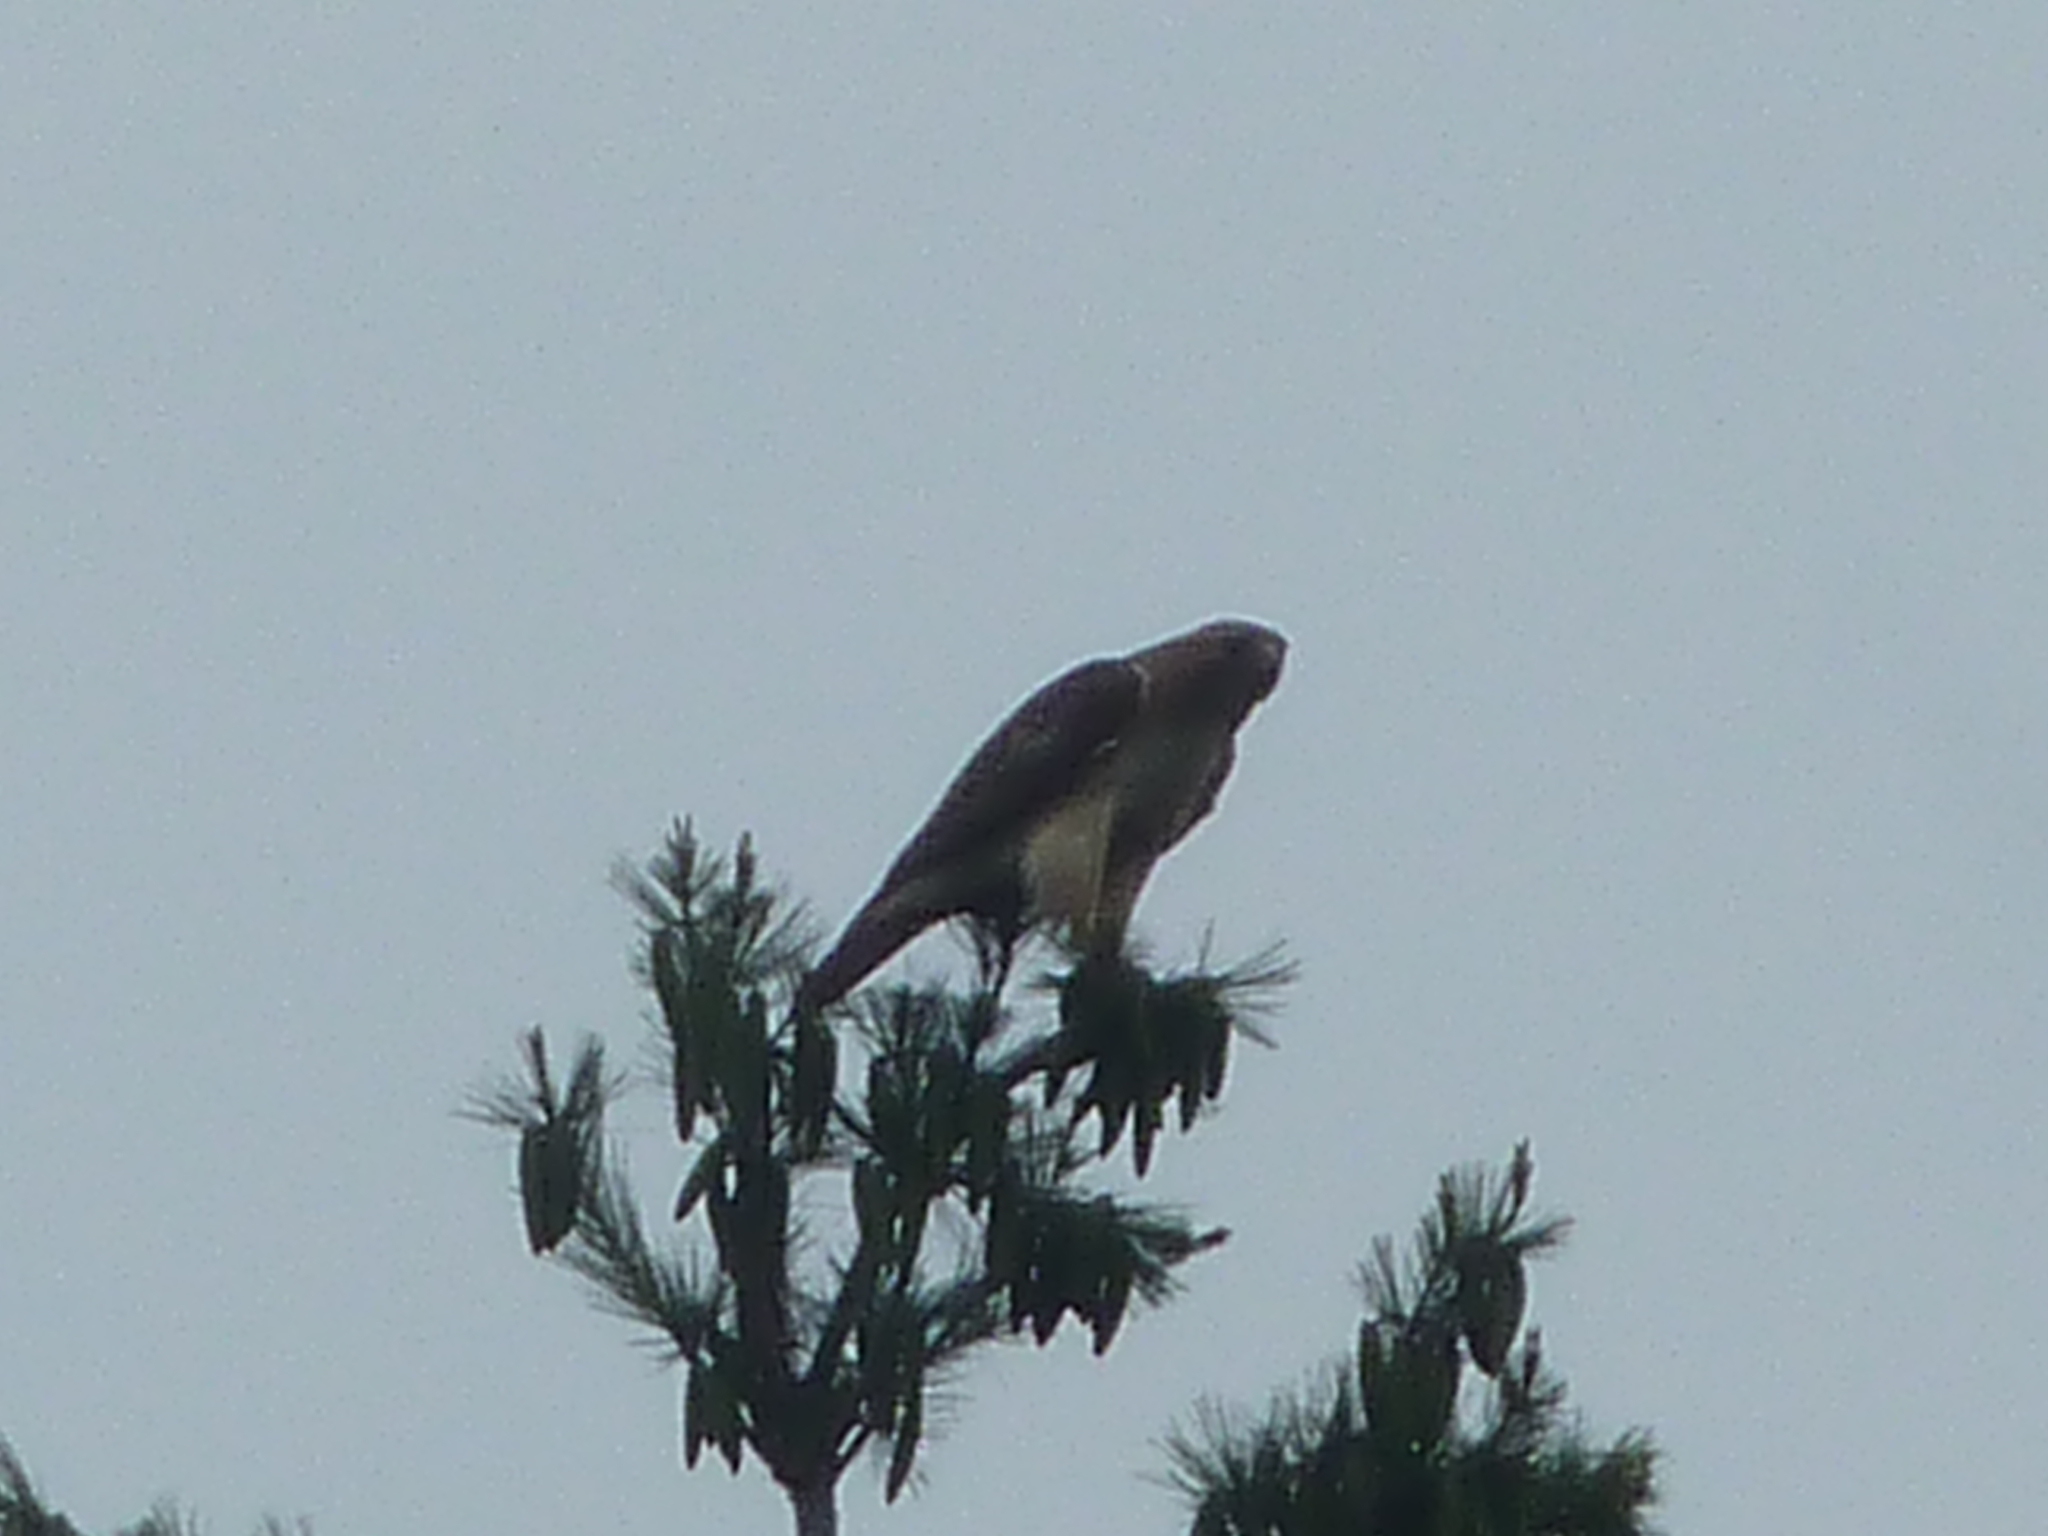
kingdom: Animalia
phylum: Chordata
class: Aves
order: Accipitriformes
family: Accipitridae
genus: Buteo
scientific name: Buteo jamaicensis
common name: Red-tailed hawk
